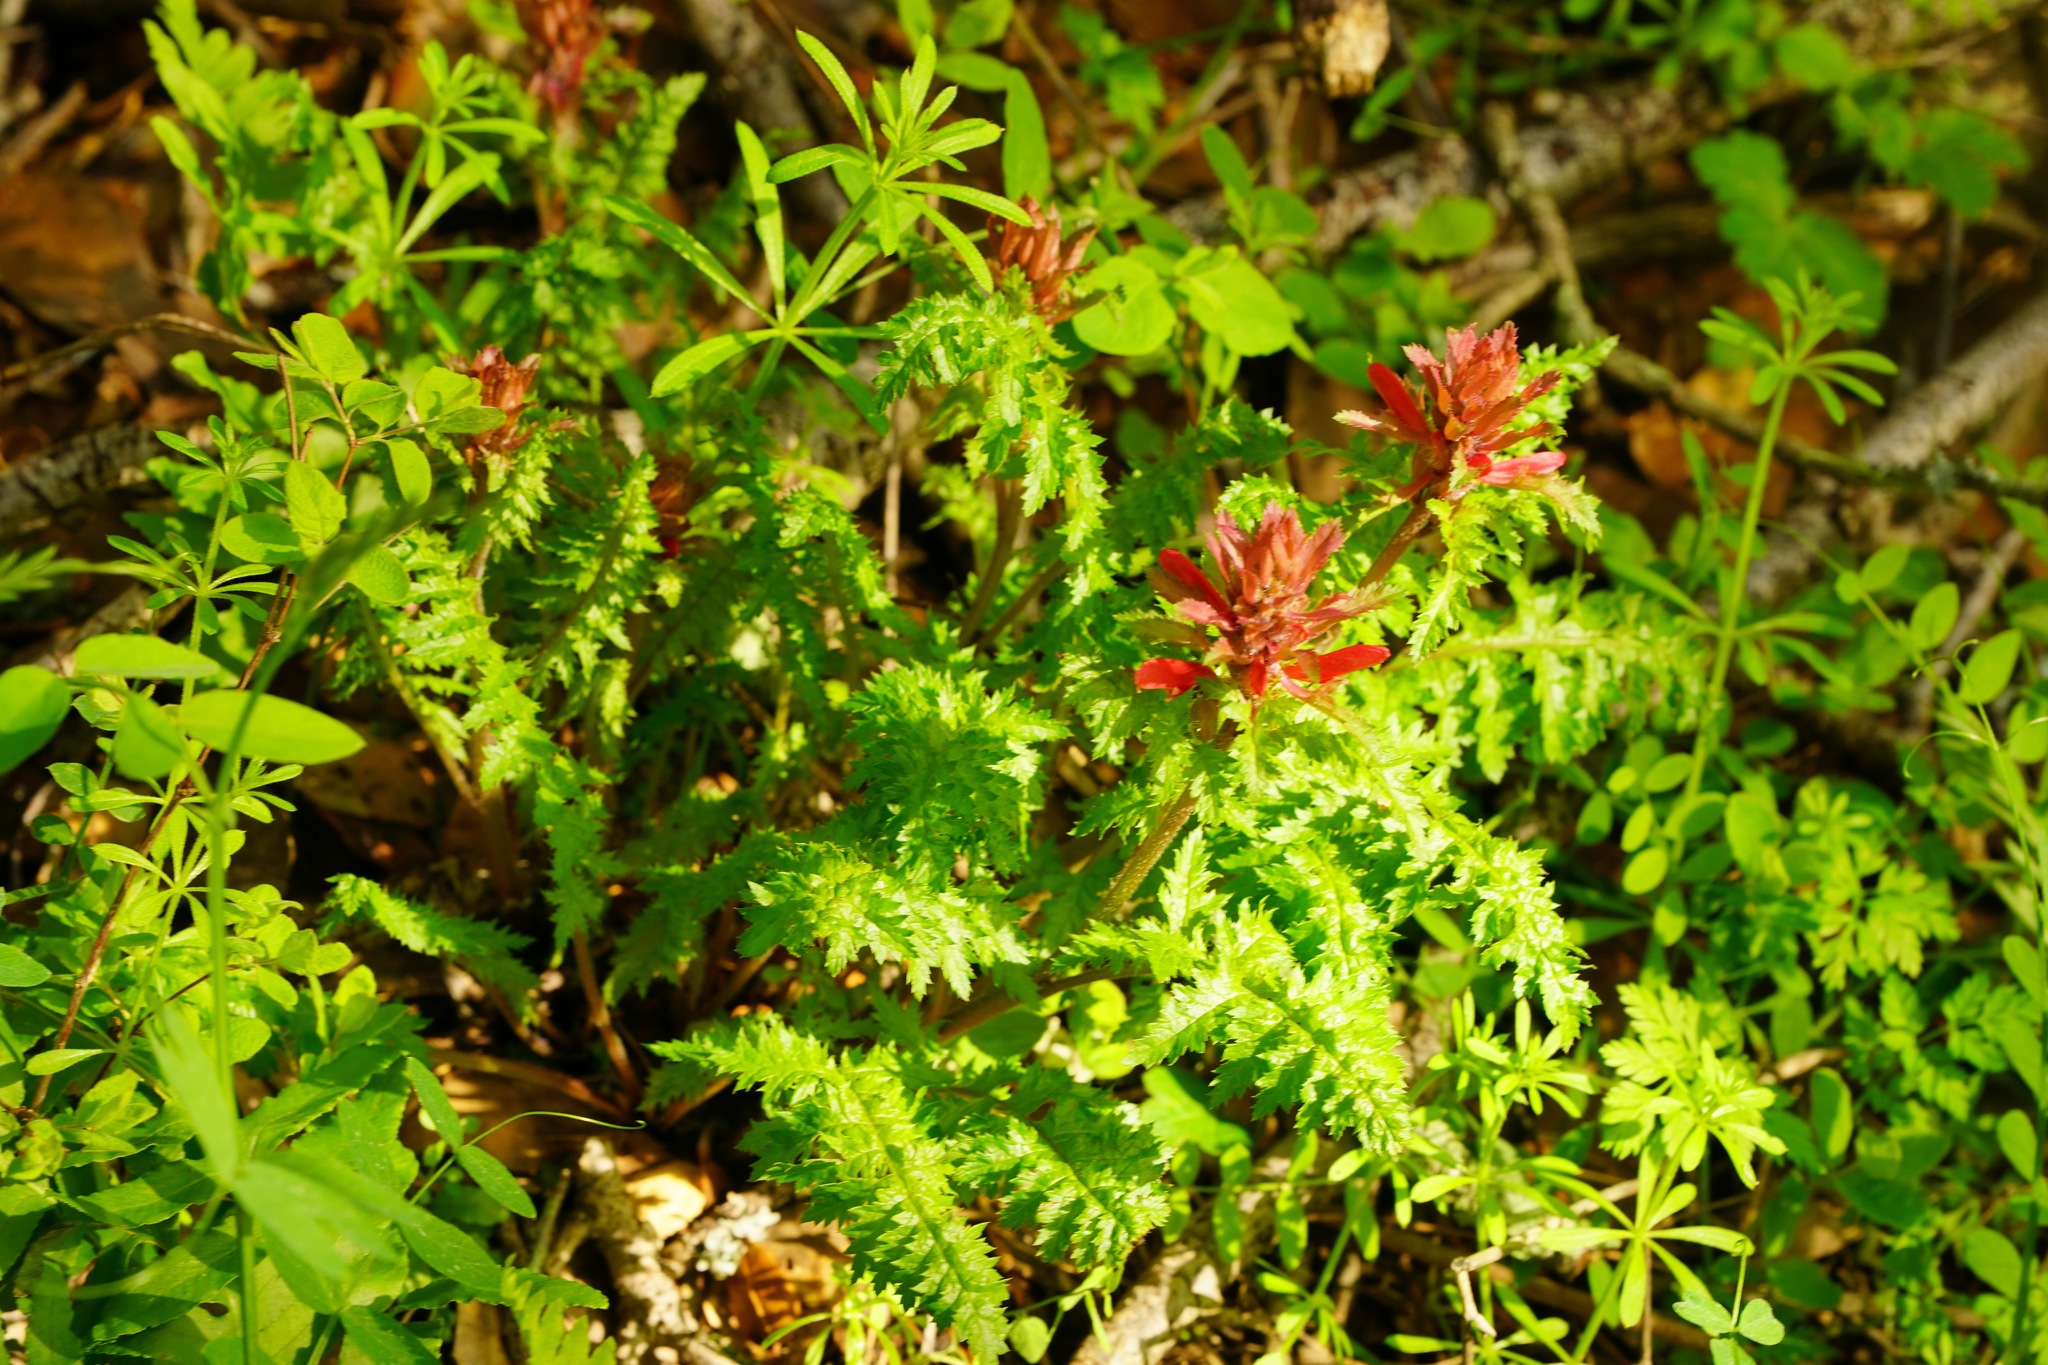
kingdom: Plantae
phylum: Tracheophyta
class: Magnoliopsida
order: Lamiales
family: Orobanchaceae
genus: Pedicularis
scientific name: Pedicularis densiflora
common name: Indian warrior
